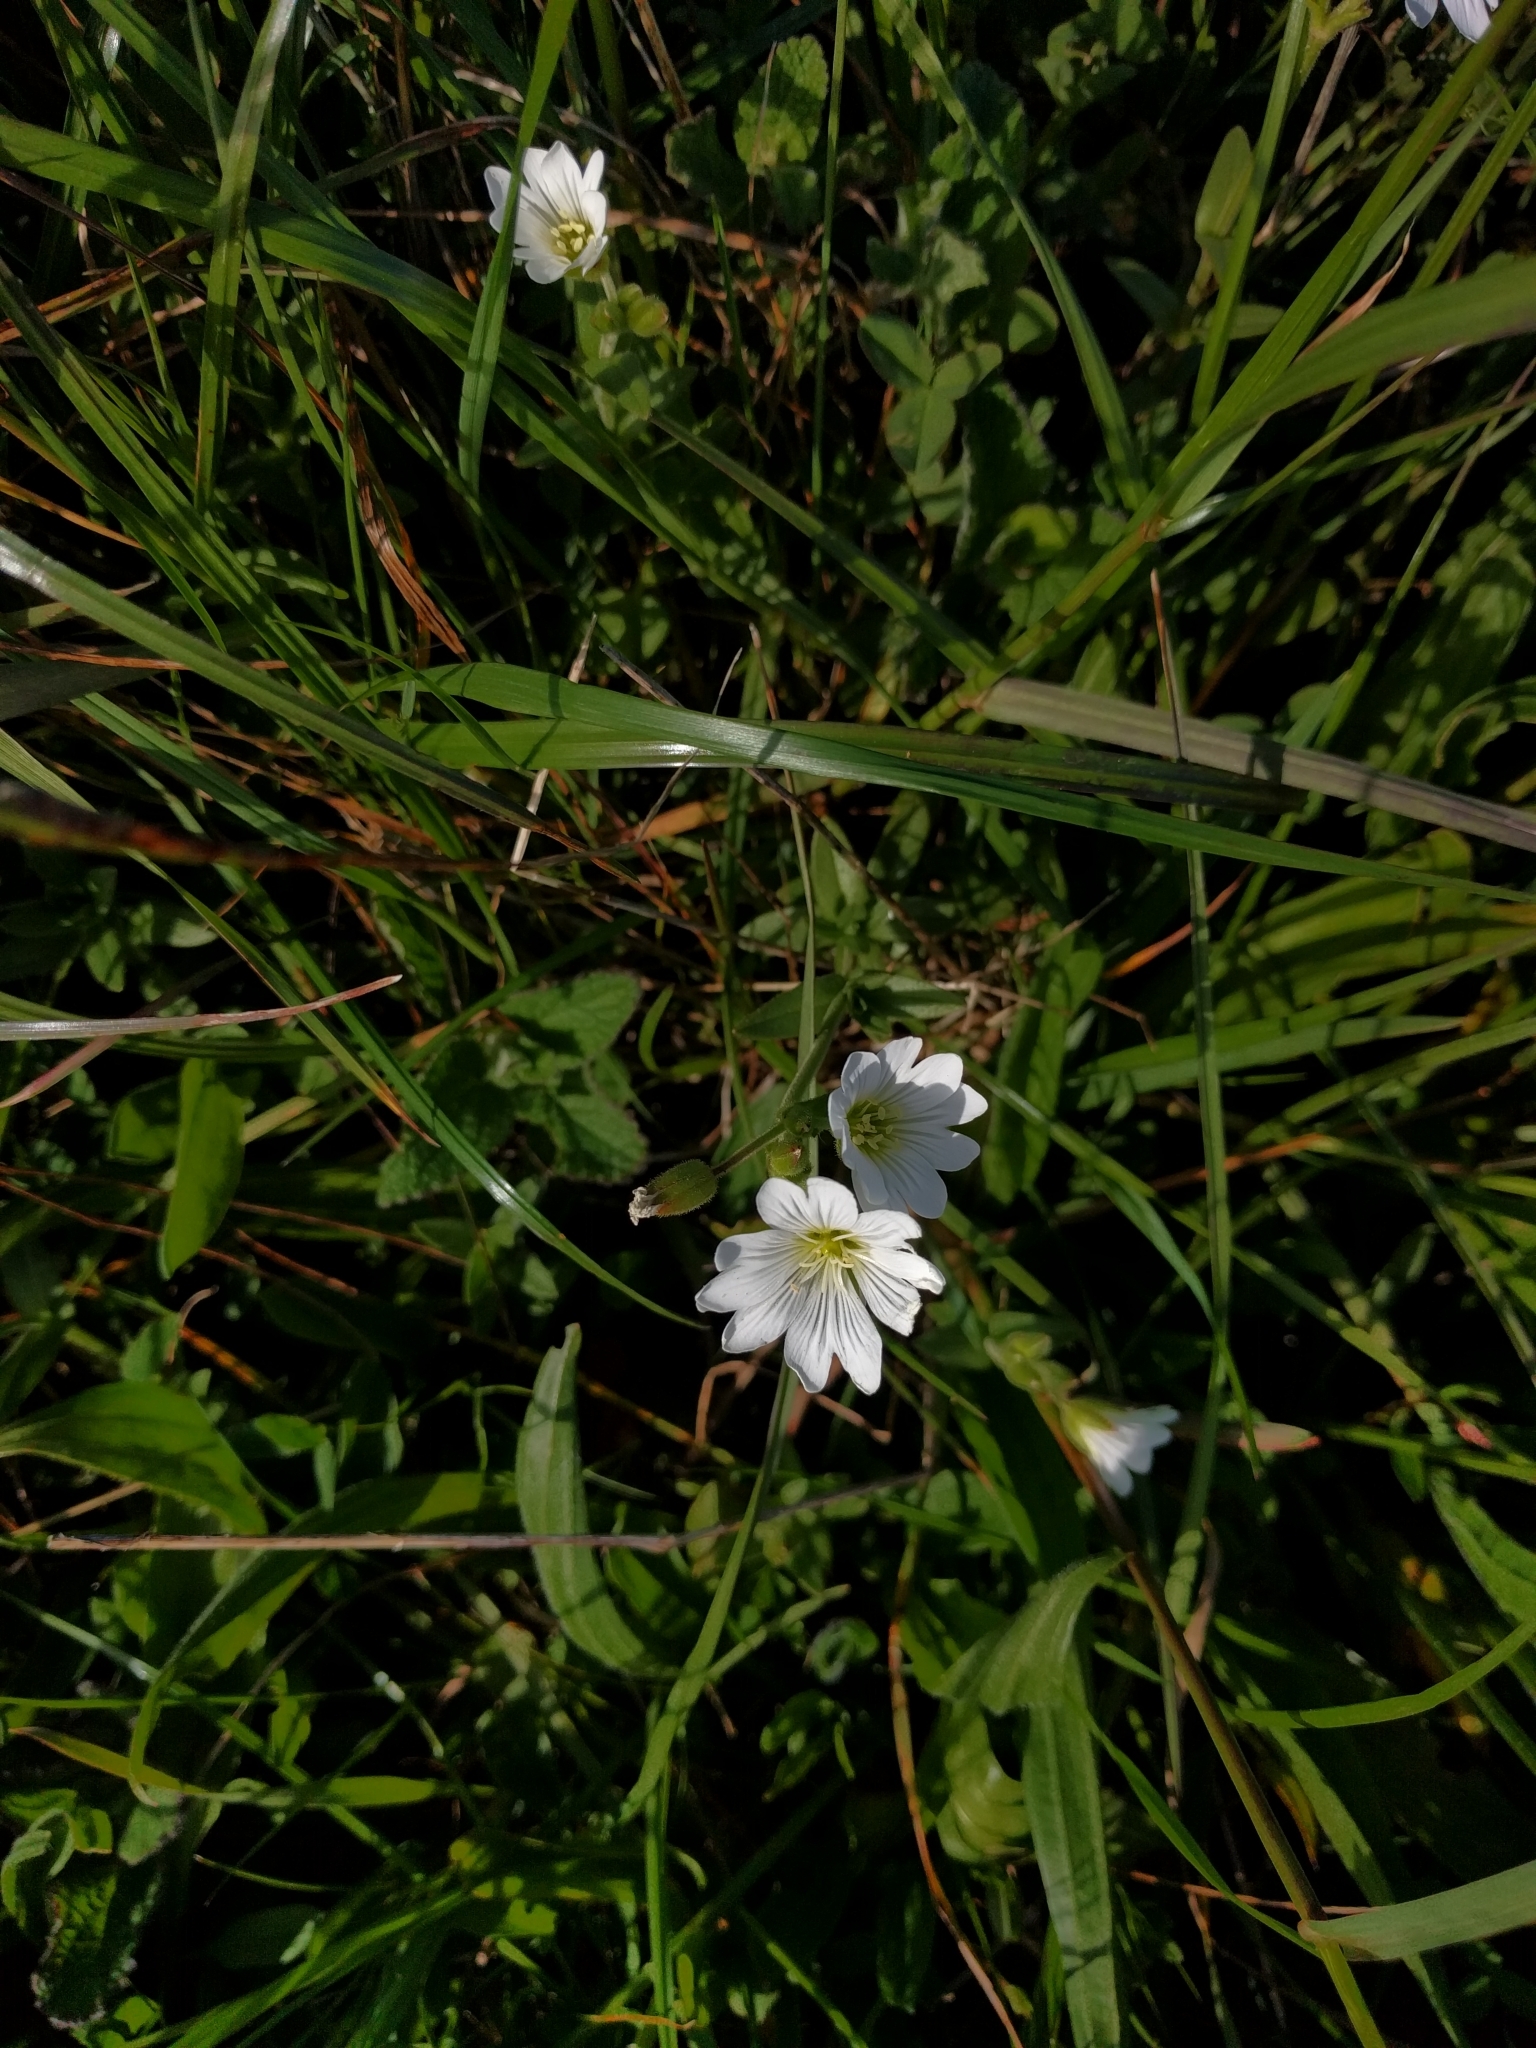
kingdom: Plantae
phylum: Tracheophyta
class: Magnoliopsida
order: Caryophyllales
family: Caryophyllaceae
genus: Cerastium
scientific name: Cerastium arvense
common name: Field mouse-ear
